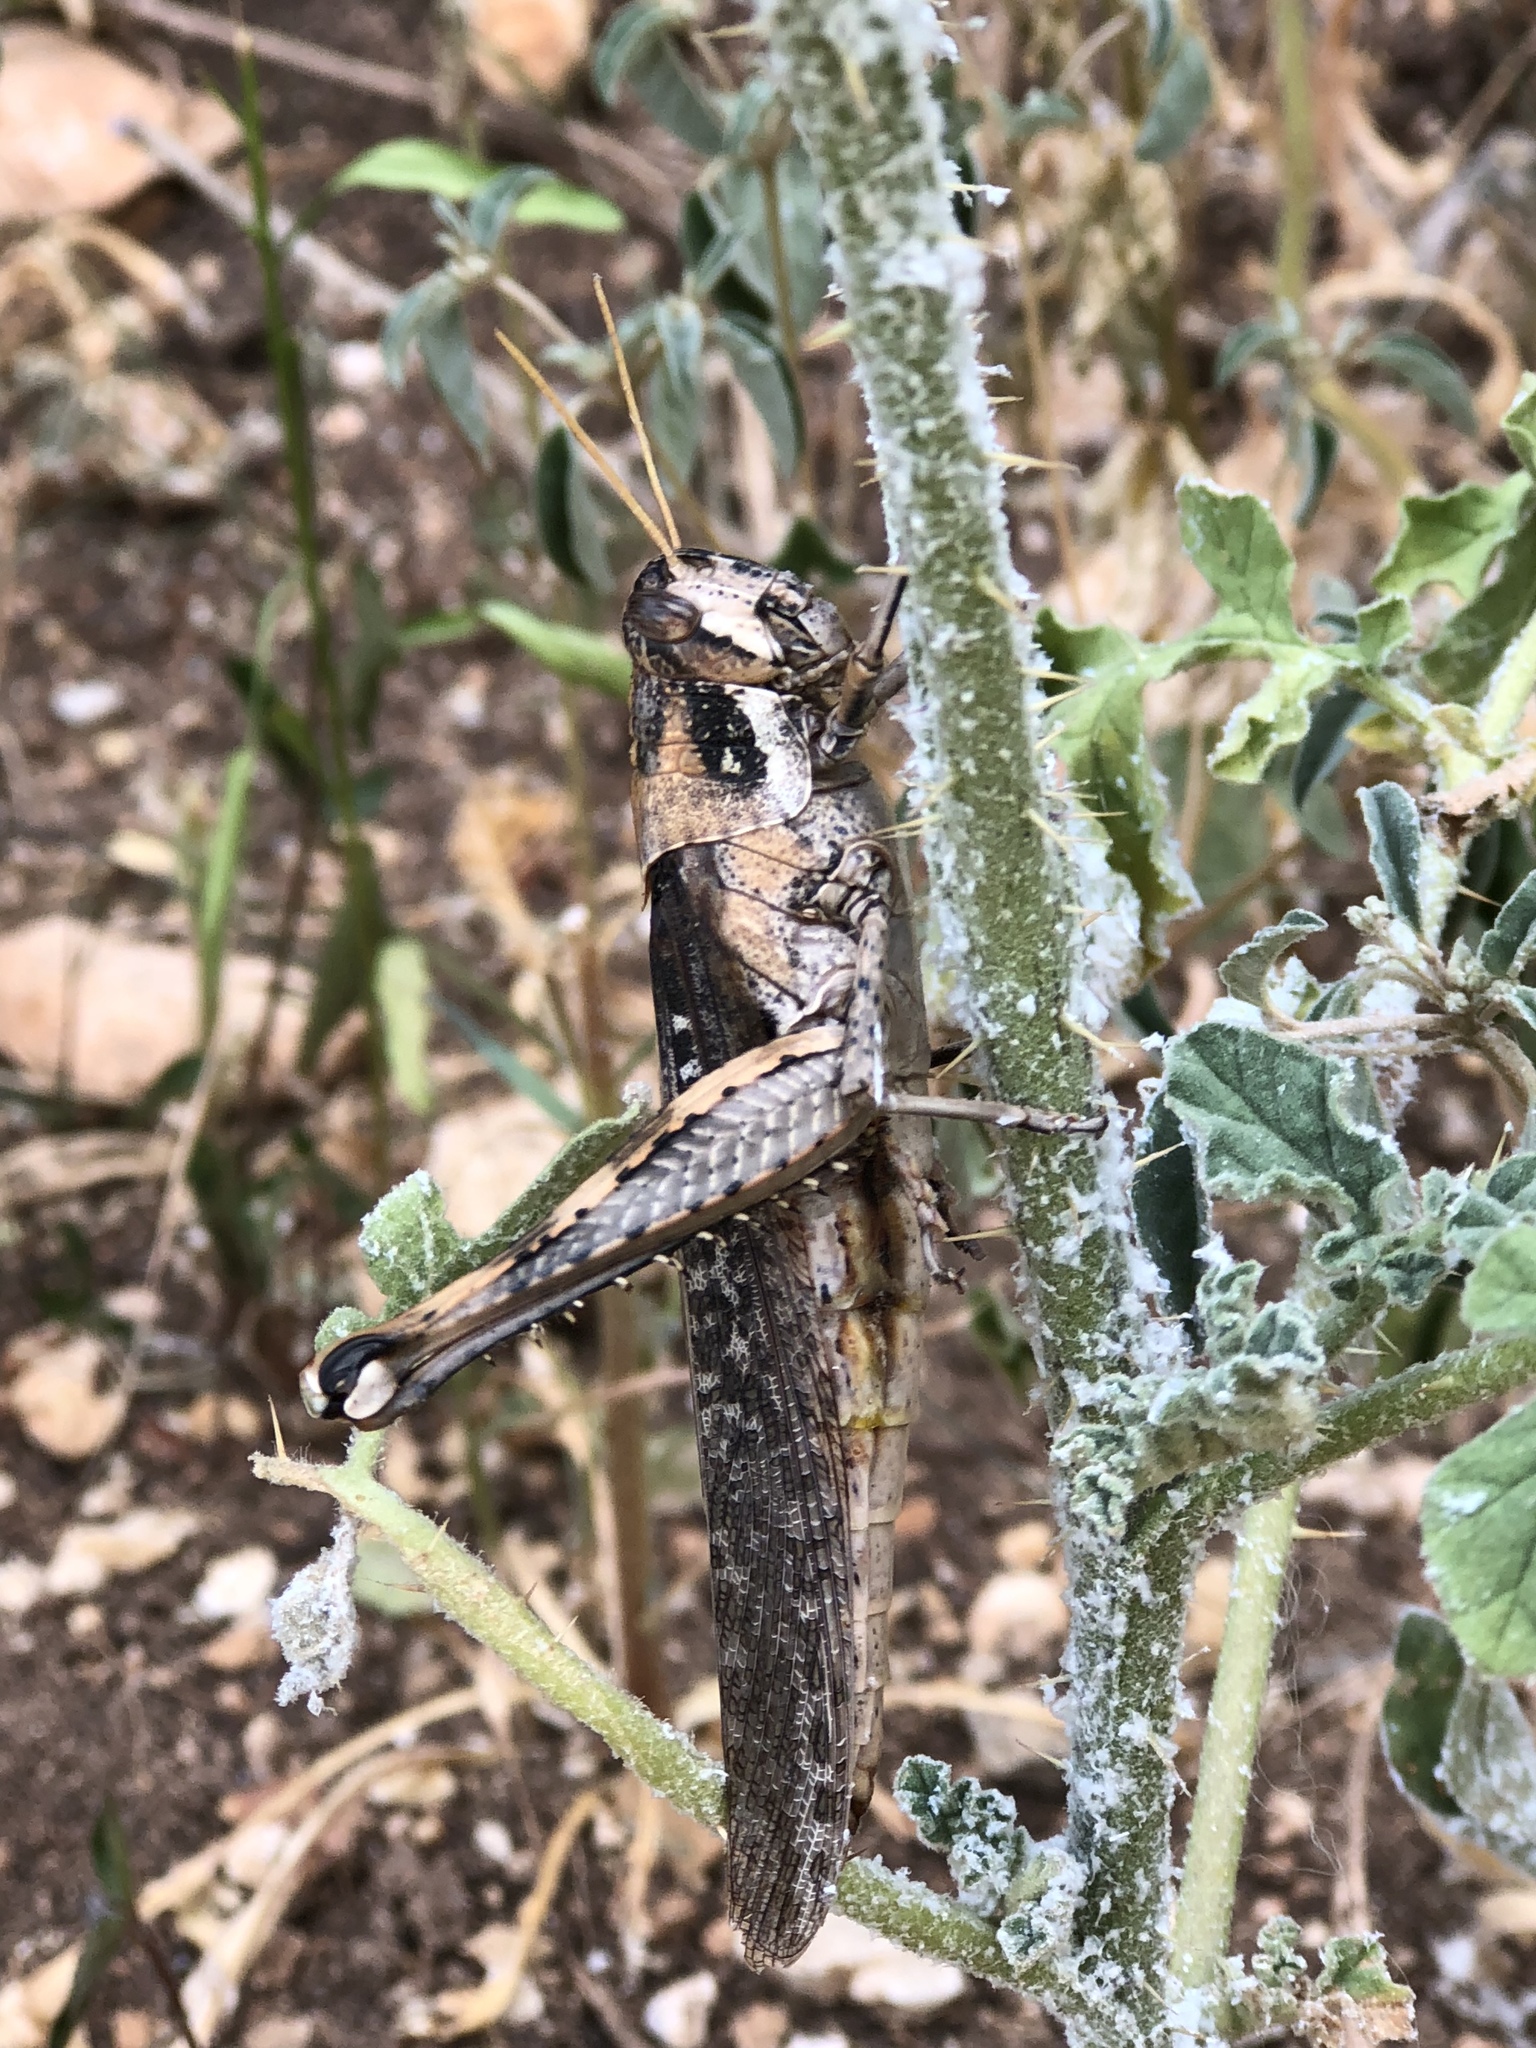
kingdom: Animalia
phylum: Arthropoda
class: Insecta
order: Orthoptera
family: Acrididae
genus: Schistocerca
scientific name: Schistocerca nitens
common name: Vagrant grasshopper
